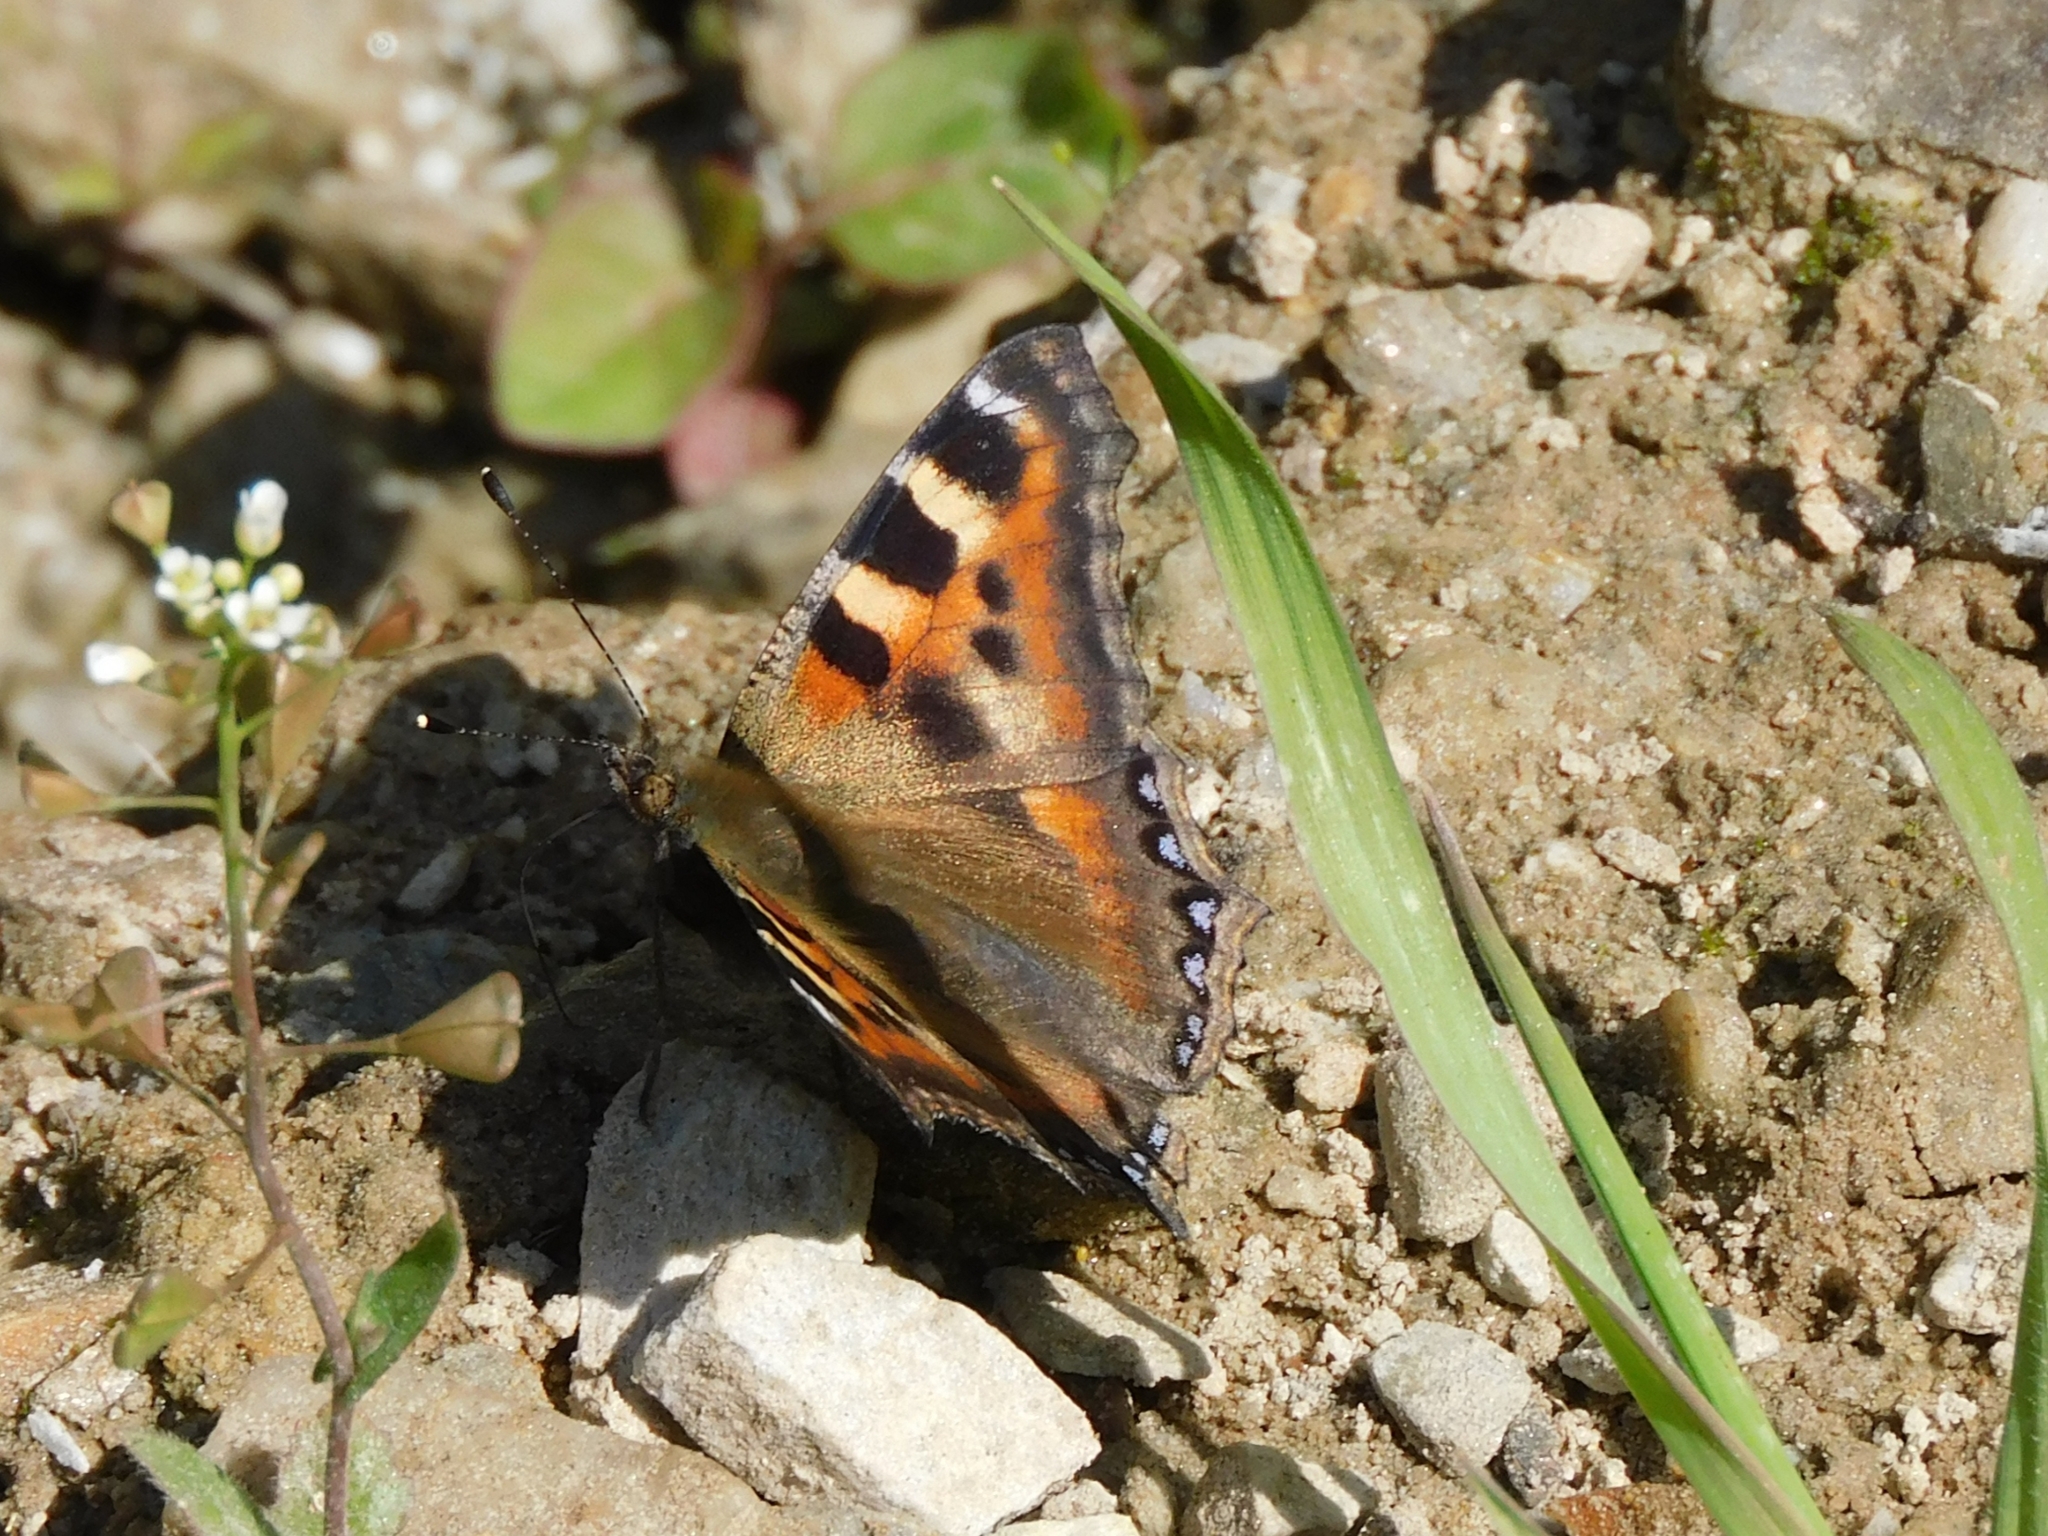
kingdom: Animalia
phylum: Arthropoda
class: Insecta
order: Lepidoptera
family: Nymphalidae
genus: Aglais
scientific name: Aglais caschmirensis
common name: Indian tortoiseshell
